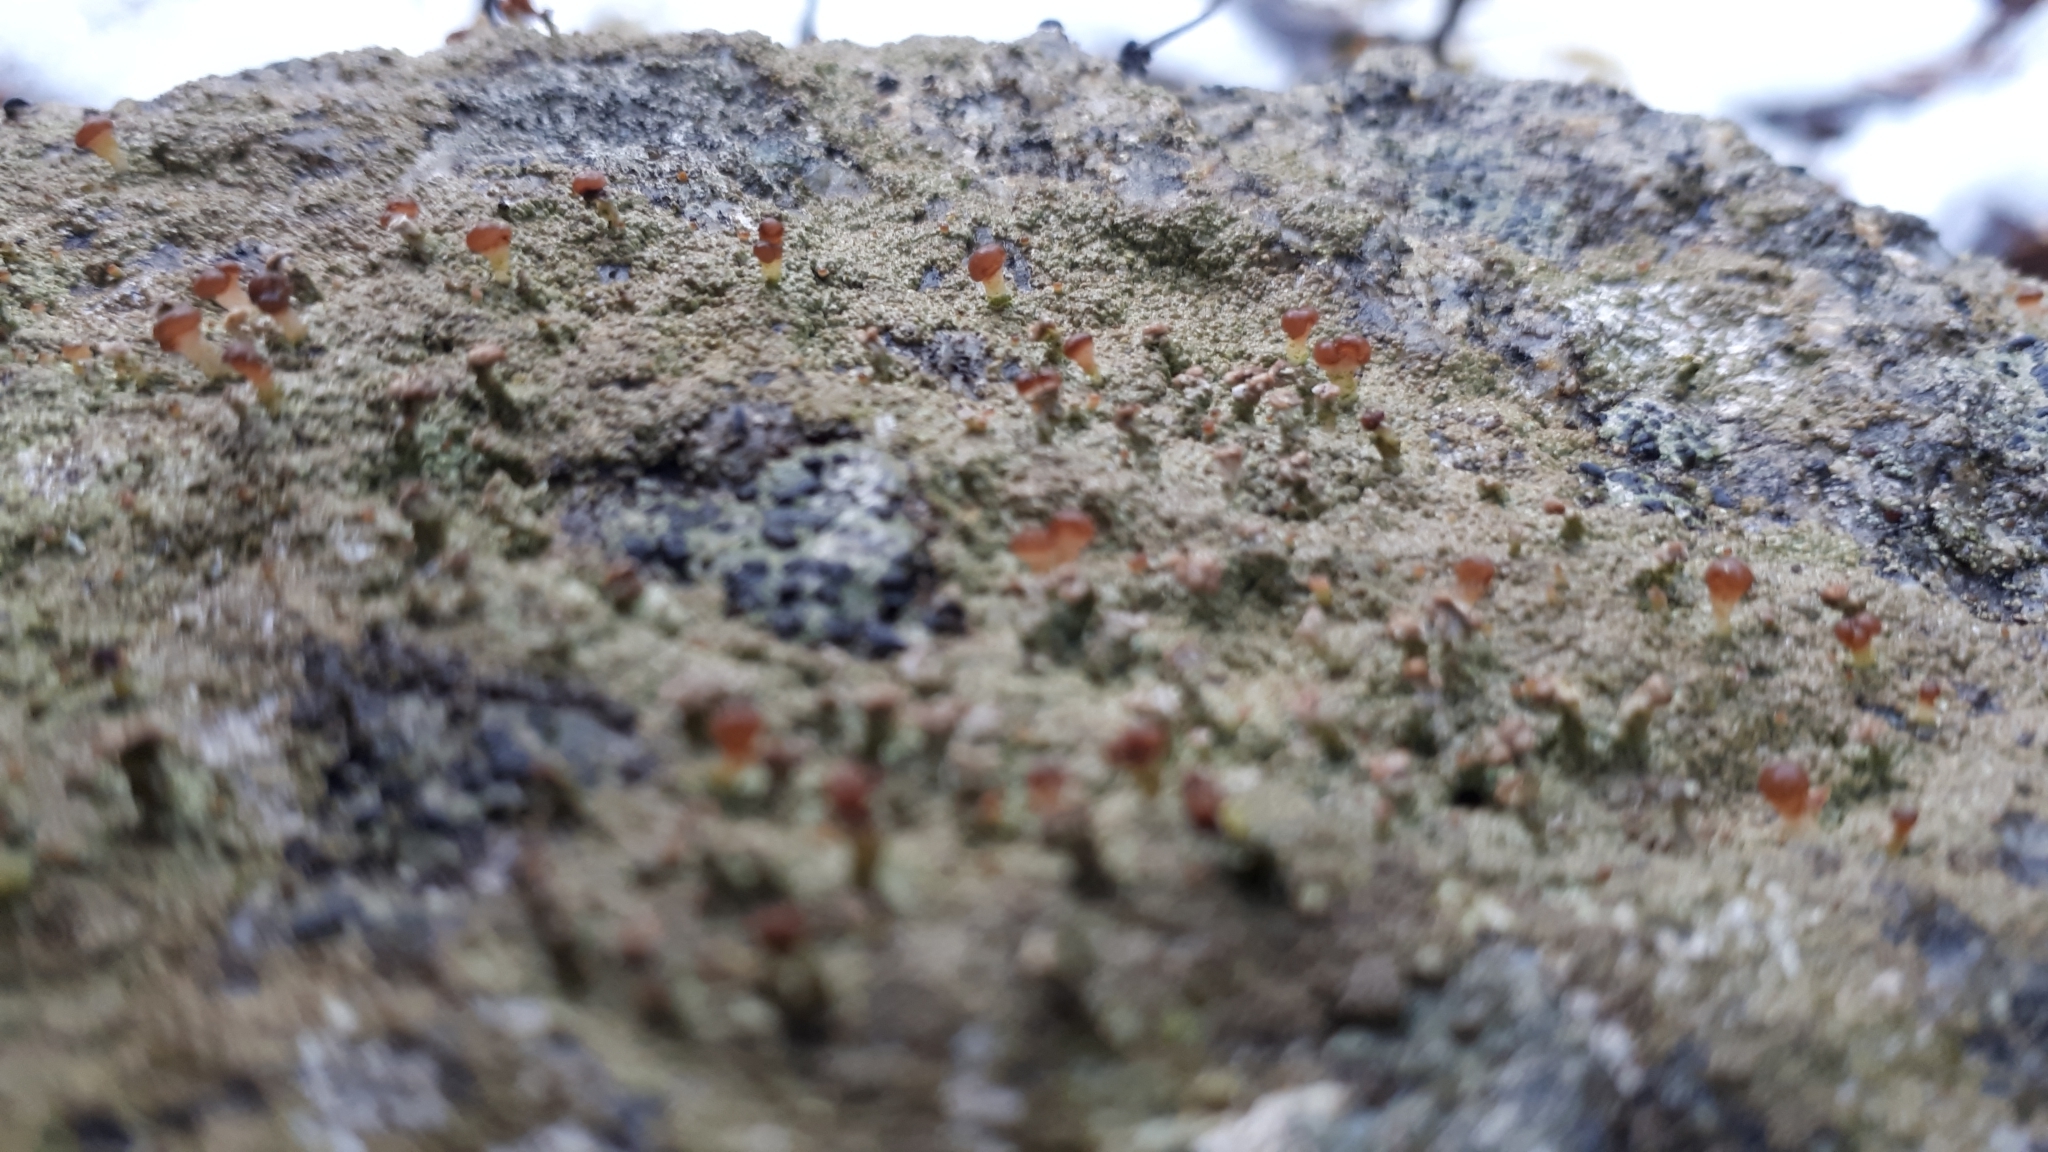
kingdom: Fungi
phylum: Ascomycota
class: Lecanoromycetes
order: Baeomycetales
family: Baeomycetaceae
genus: Baeomyces
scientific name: Baeomyces rufus
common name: Brown beret lichen
